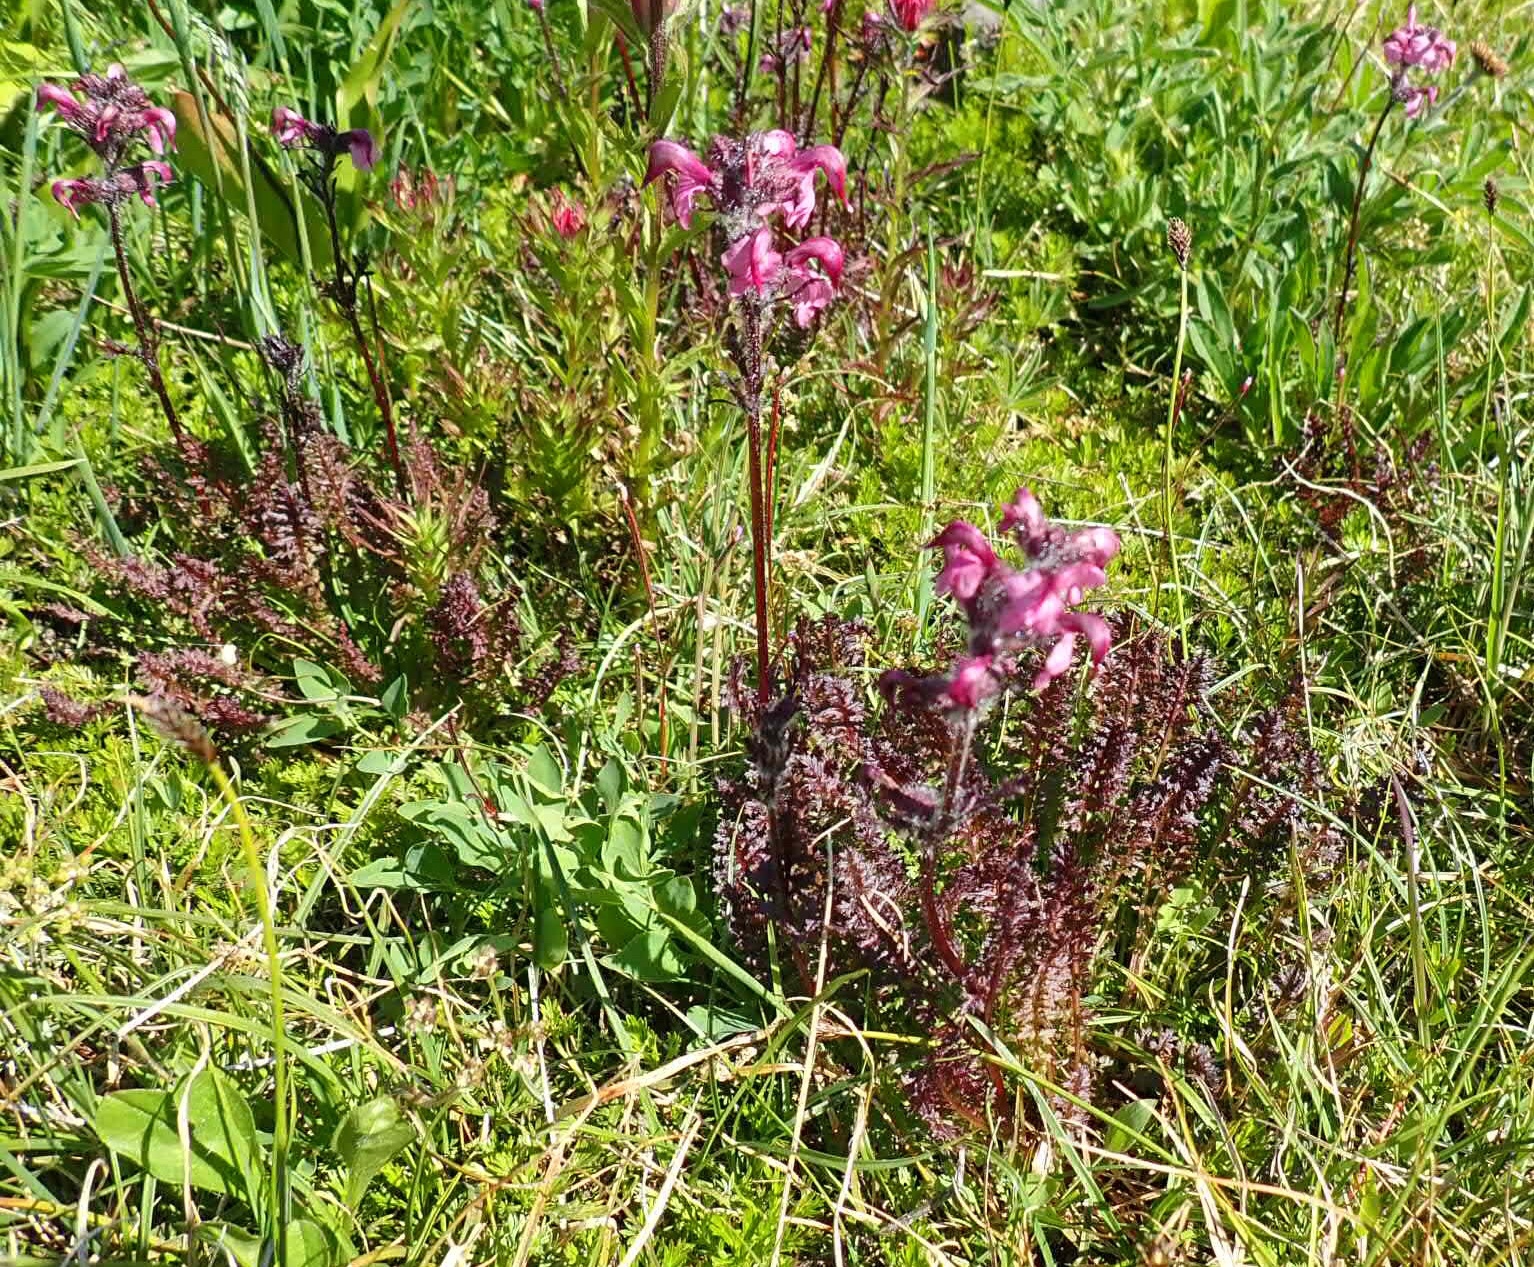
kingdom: Plantae
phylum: Tracheophyta
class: Magnoliopsida
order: Lamiales
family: Orobanchaceae
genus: Pedicularis
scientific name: Pedicularis ornithorhynchos
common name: Bird's-beak lousewort
